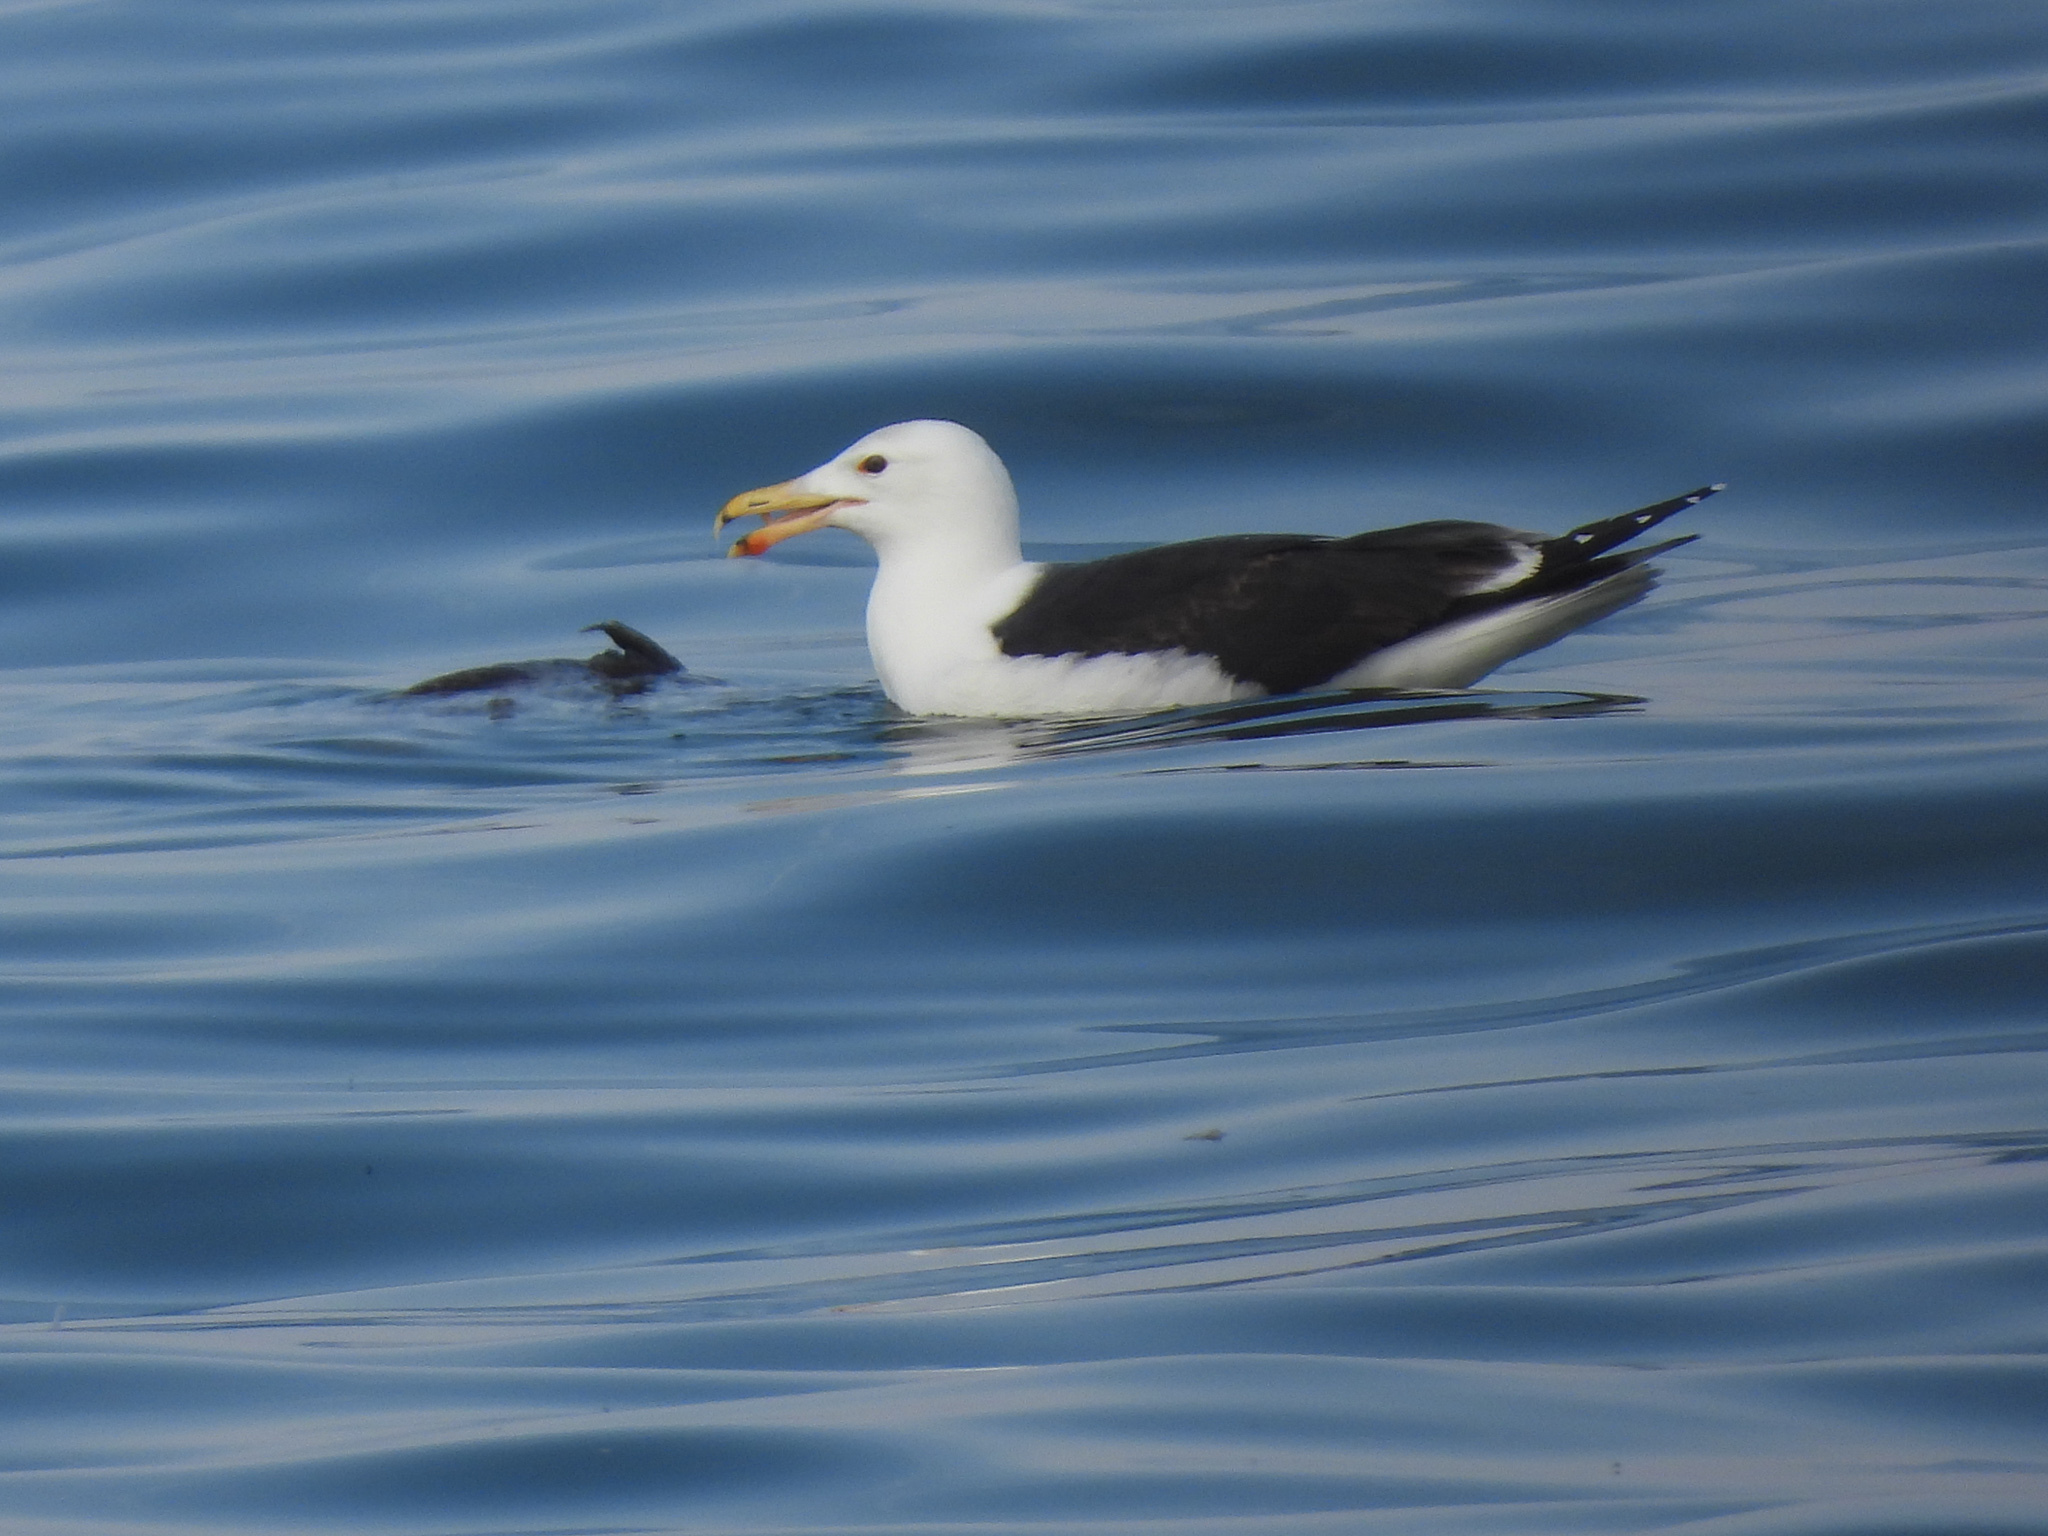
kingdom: Animalia
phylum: Chordata
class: Aves
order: Charadriiformes
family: Laridae
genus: Larus
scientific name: Larus marinus
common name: Great black-backed gull
